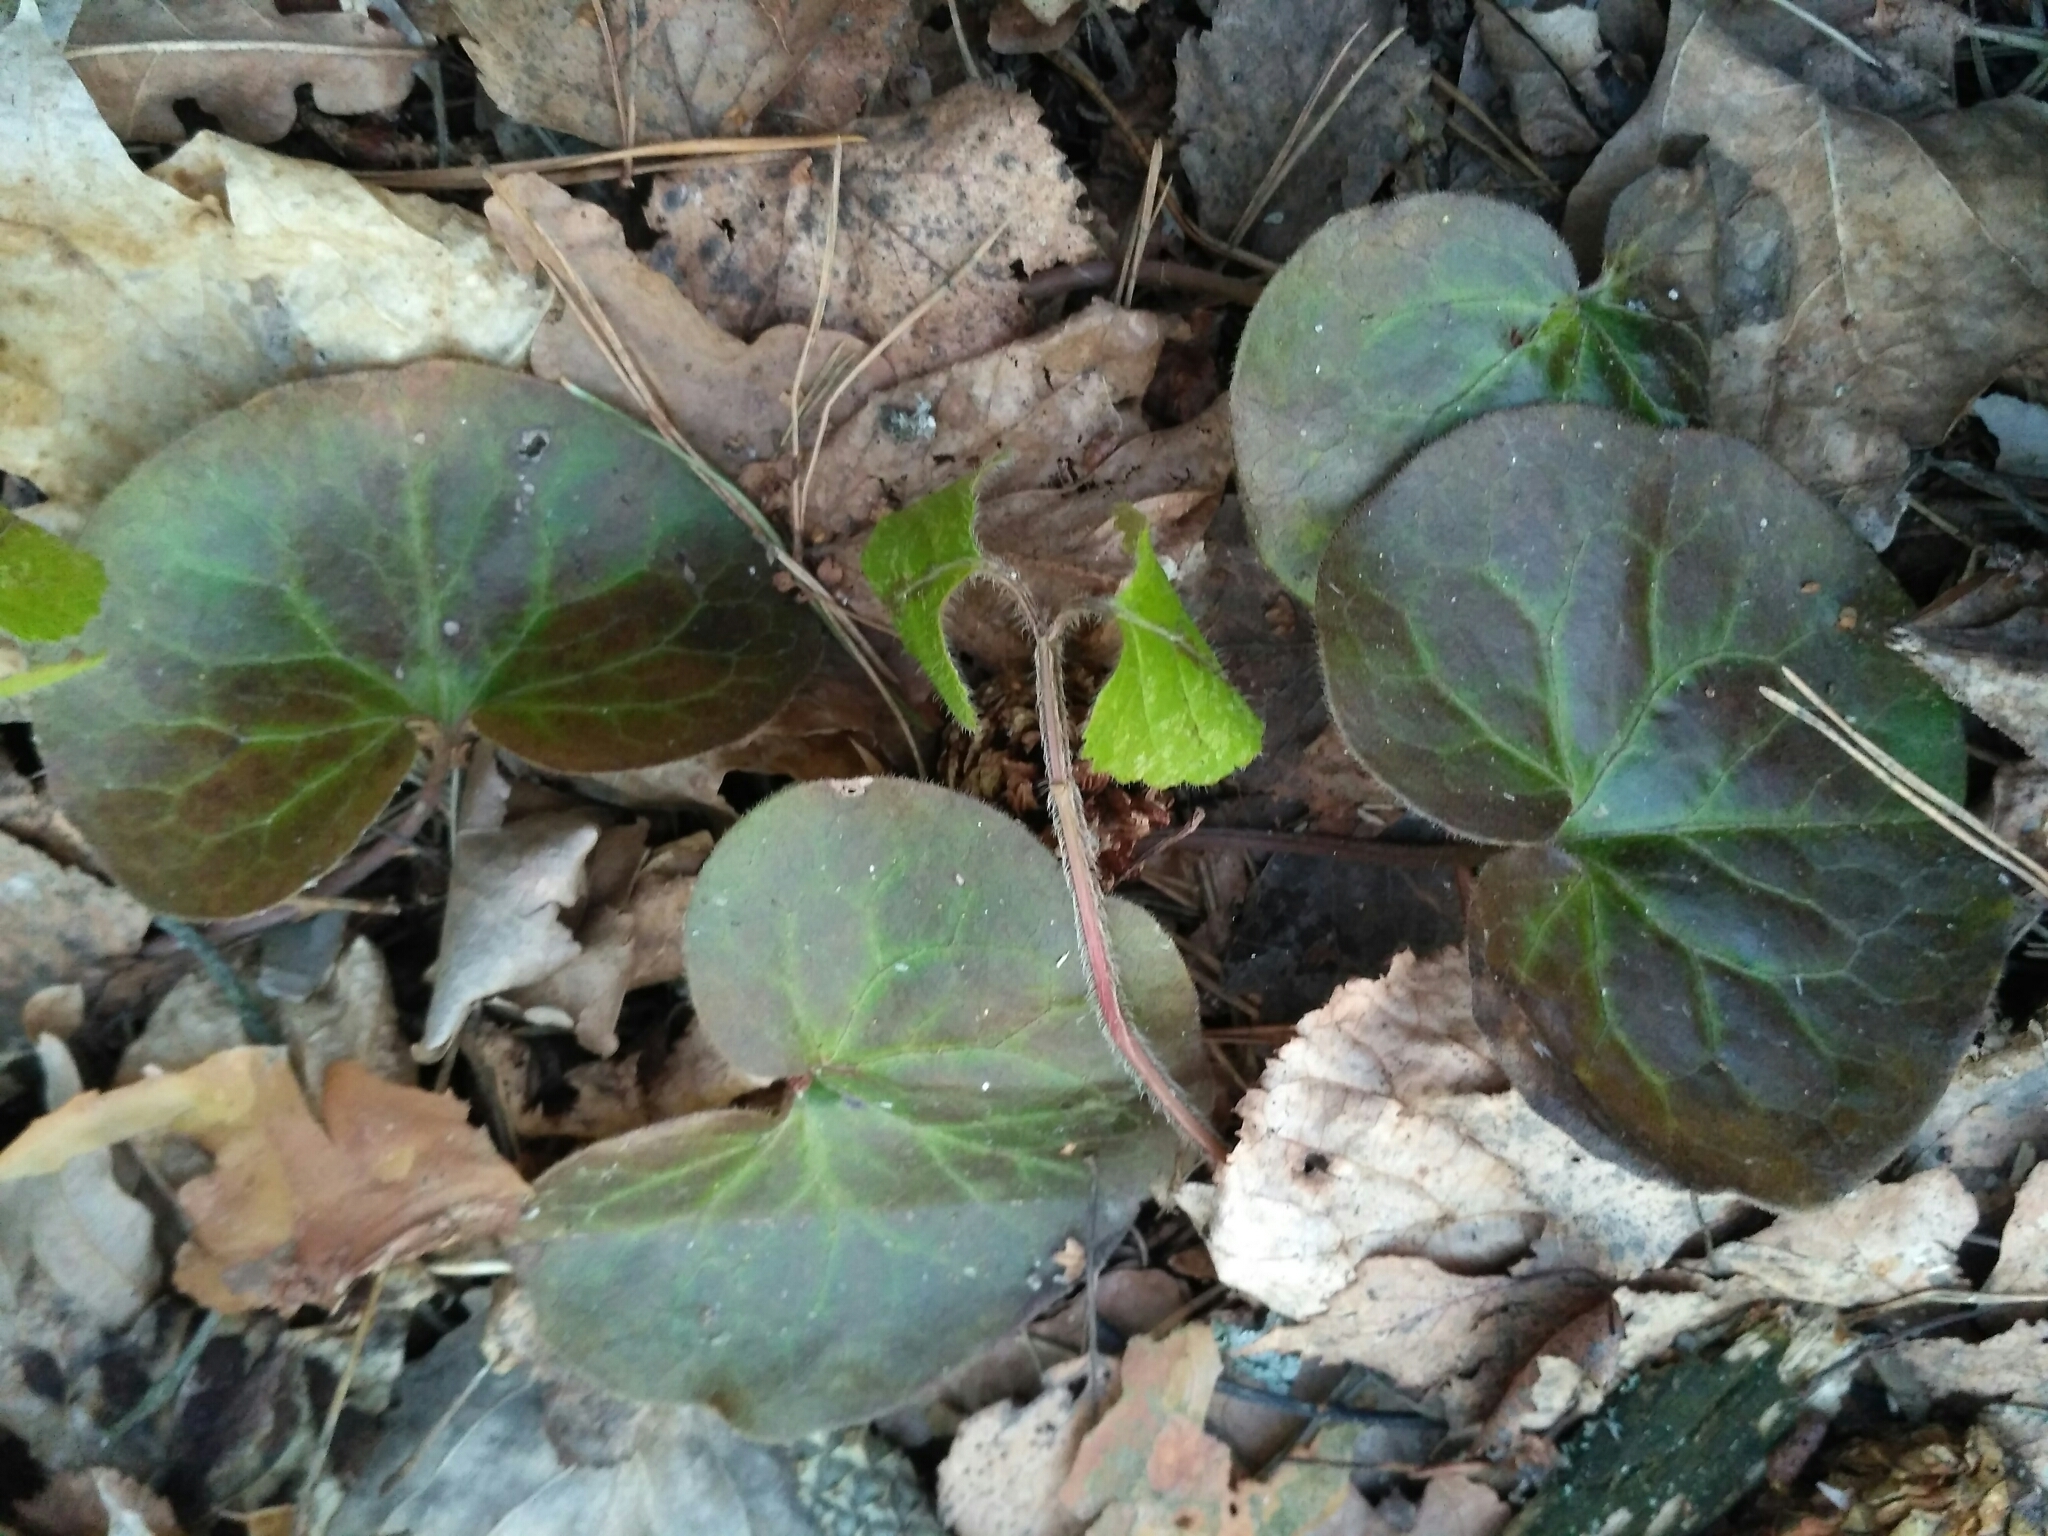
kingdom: Plantae
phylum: Tracheophyta
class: Magnoliopsida
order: Piperales
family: Aristolochiaceae
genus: Asarum
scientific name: Asarum europaeum
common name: Asarabacca
